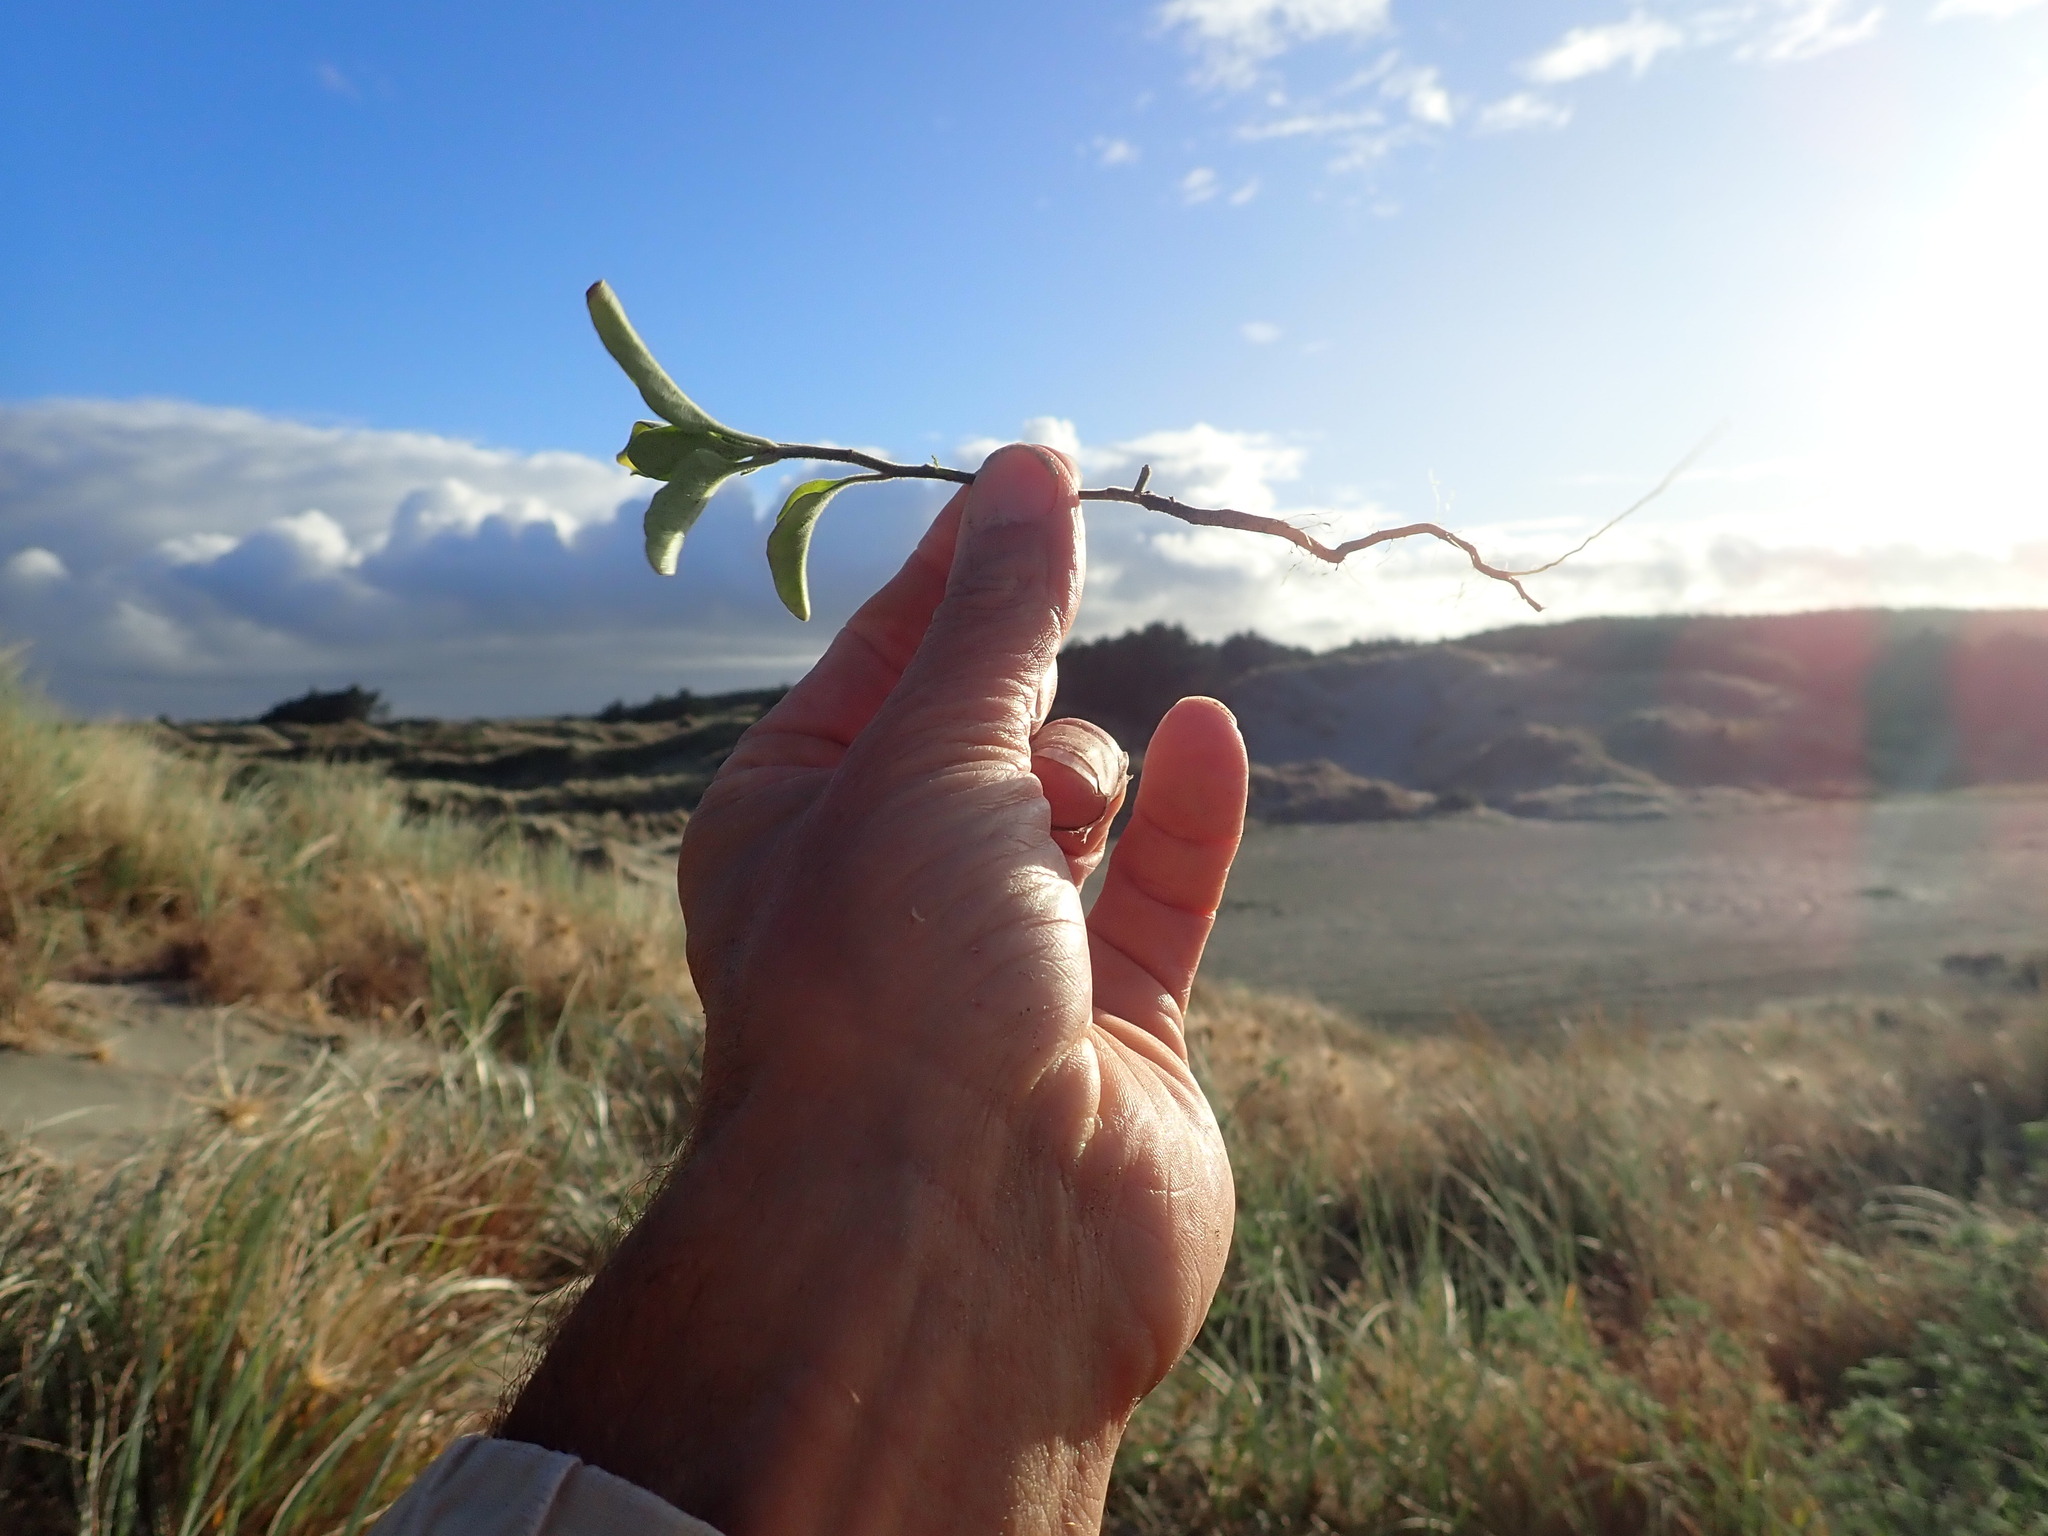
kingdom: Plantae
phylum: Tracheophyta
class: Magnoliopsida
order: Solanales
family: Solanaceae
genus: Solanum
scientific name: Solanum chenopodioides
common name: Tall nightshade
